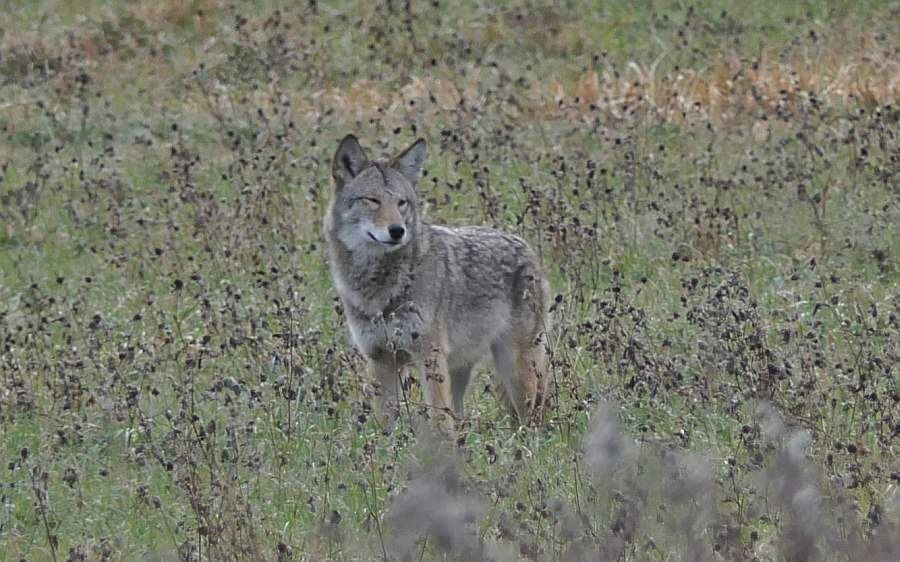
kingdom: Animalia
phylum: Chordata
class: Mammalia
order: Carnivora
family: Canidae
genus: Canis
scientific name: Canis latrans
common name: Coyote
